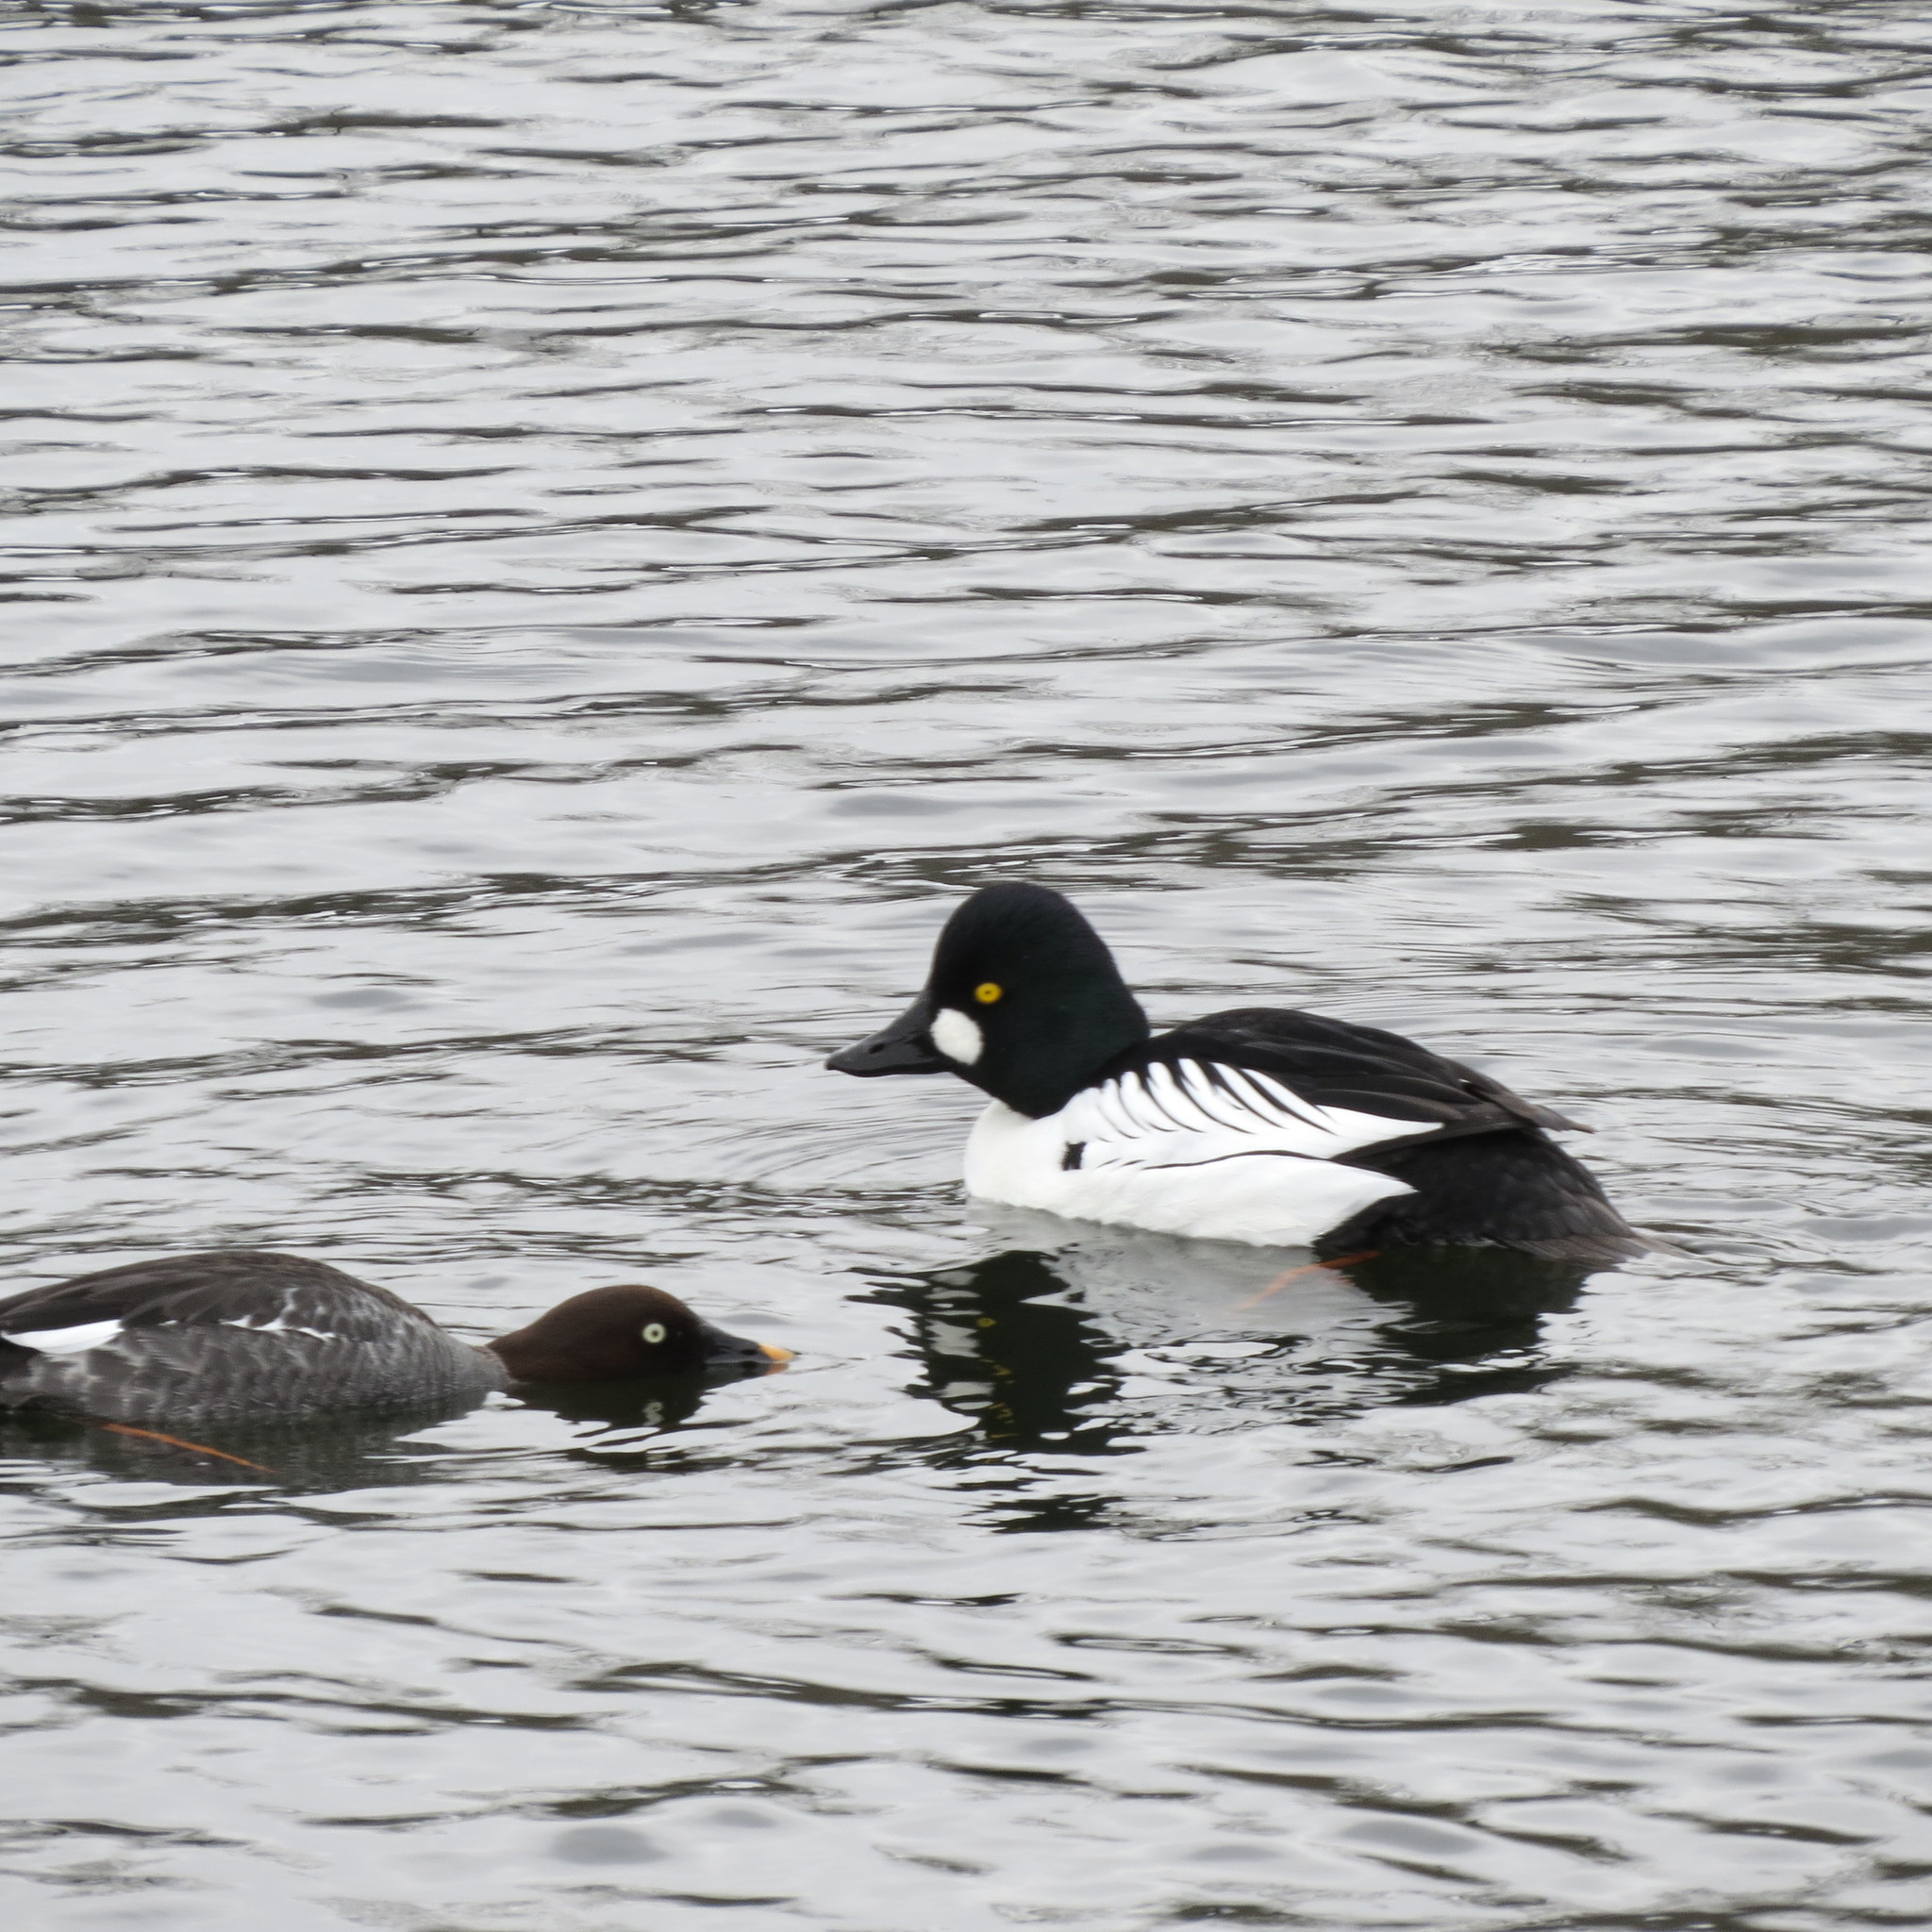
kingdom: Animalia
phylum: Chordata
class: Aves
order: Anseriformes
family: Anatidae
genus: Bucephala
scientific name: Bucephala clangula
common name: Common goldeneye
